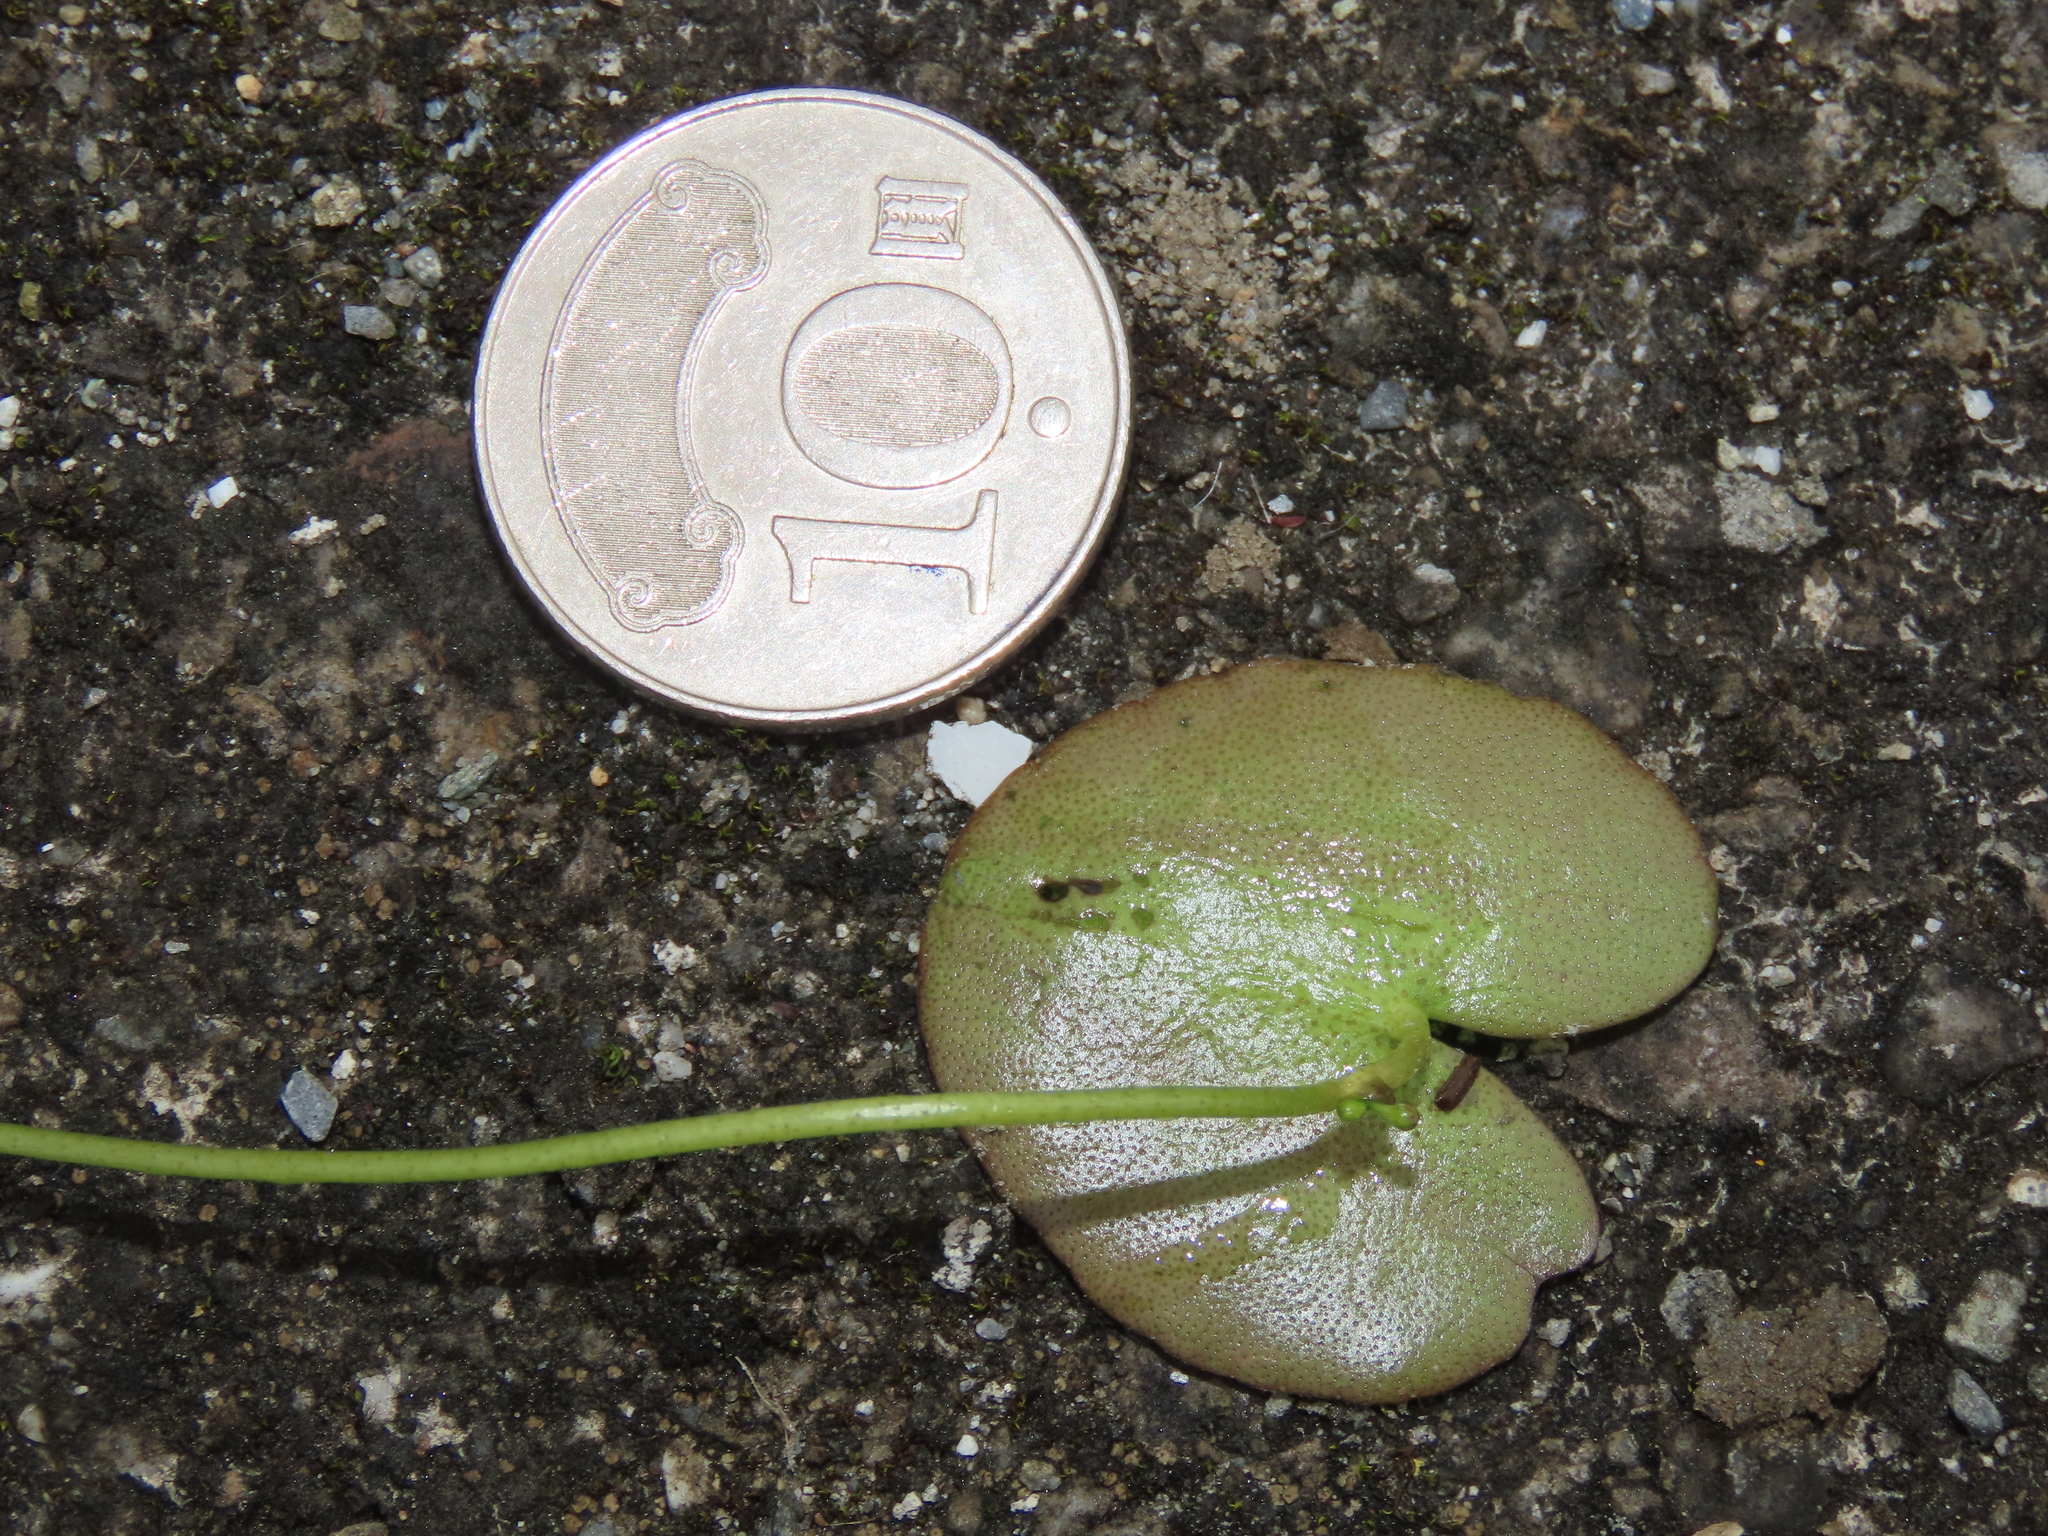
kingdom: Plantae
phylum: Tracheophyta
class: Magnoliopsida
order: Asterales
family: Menyanthaceae
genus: Nymphoides
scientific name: Nymphoides hydrophylla
